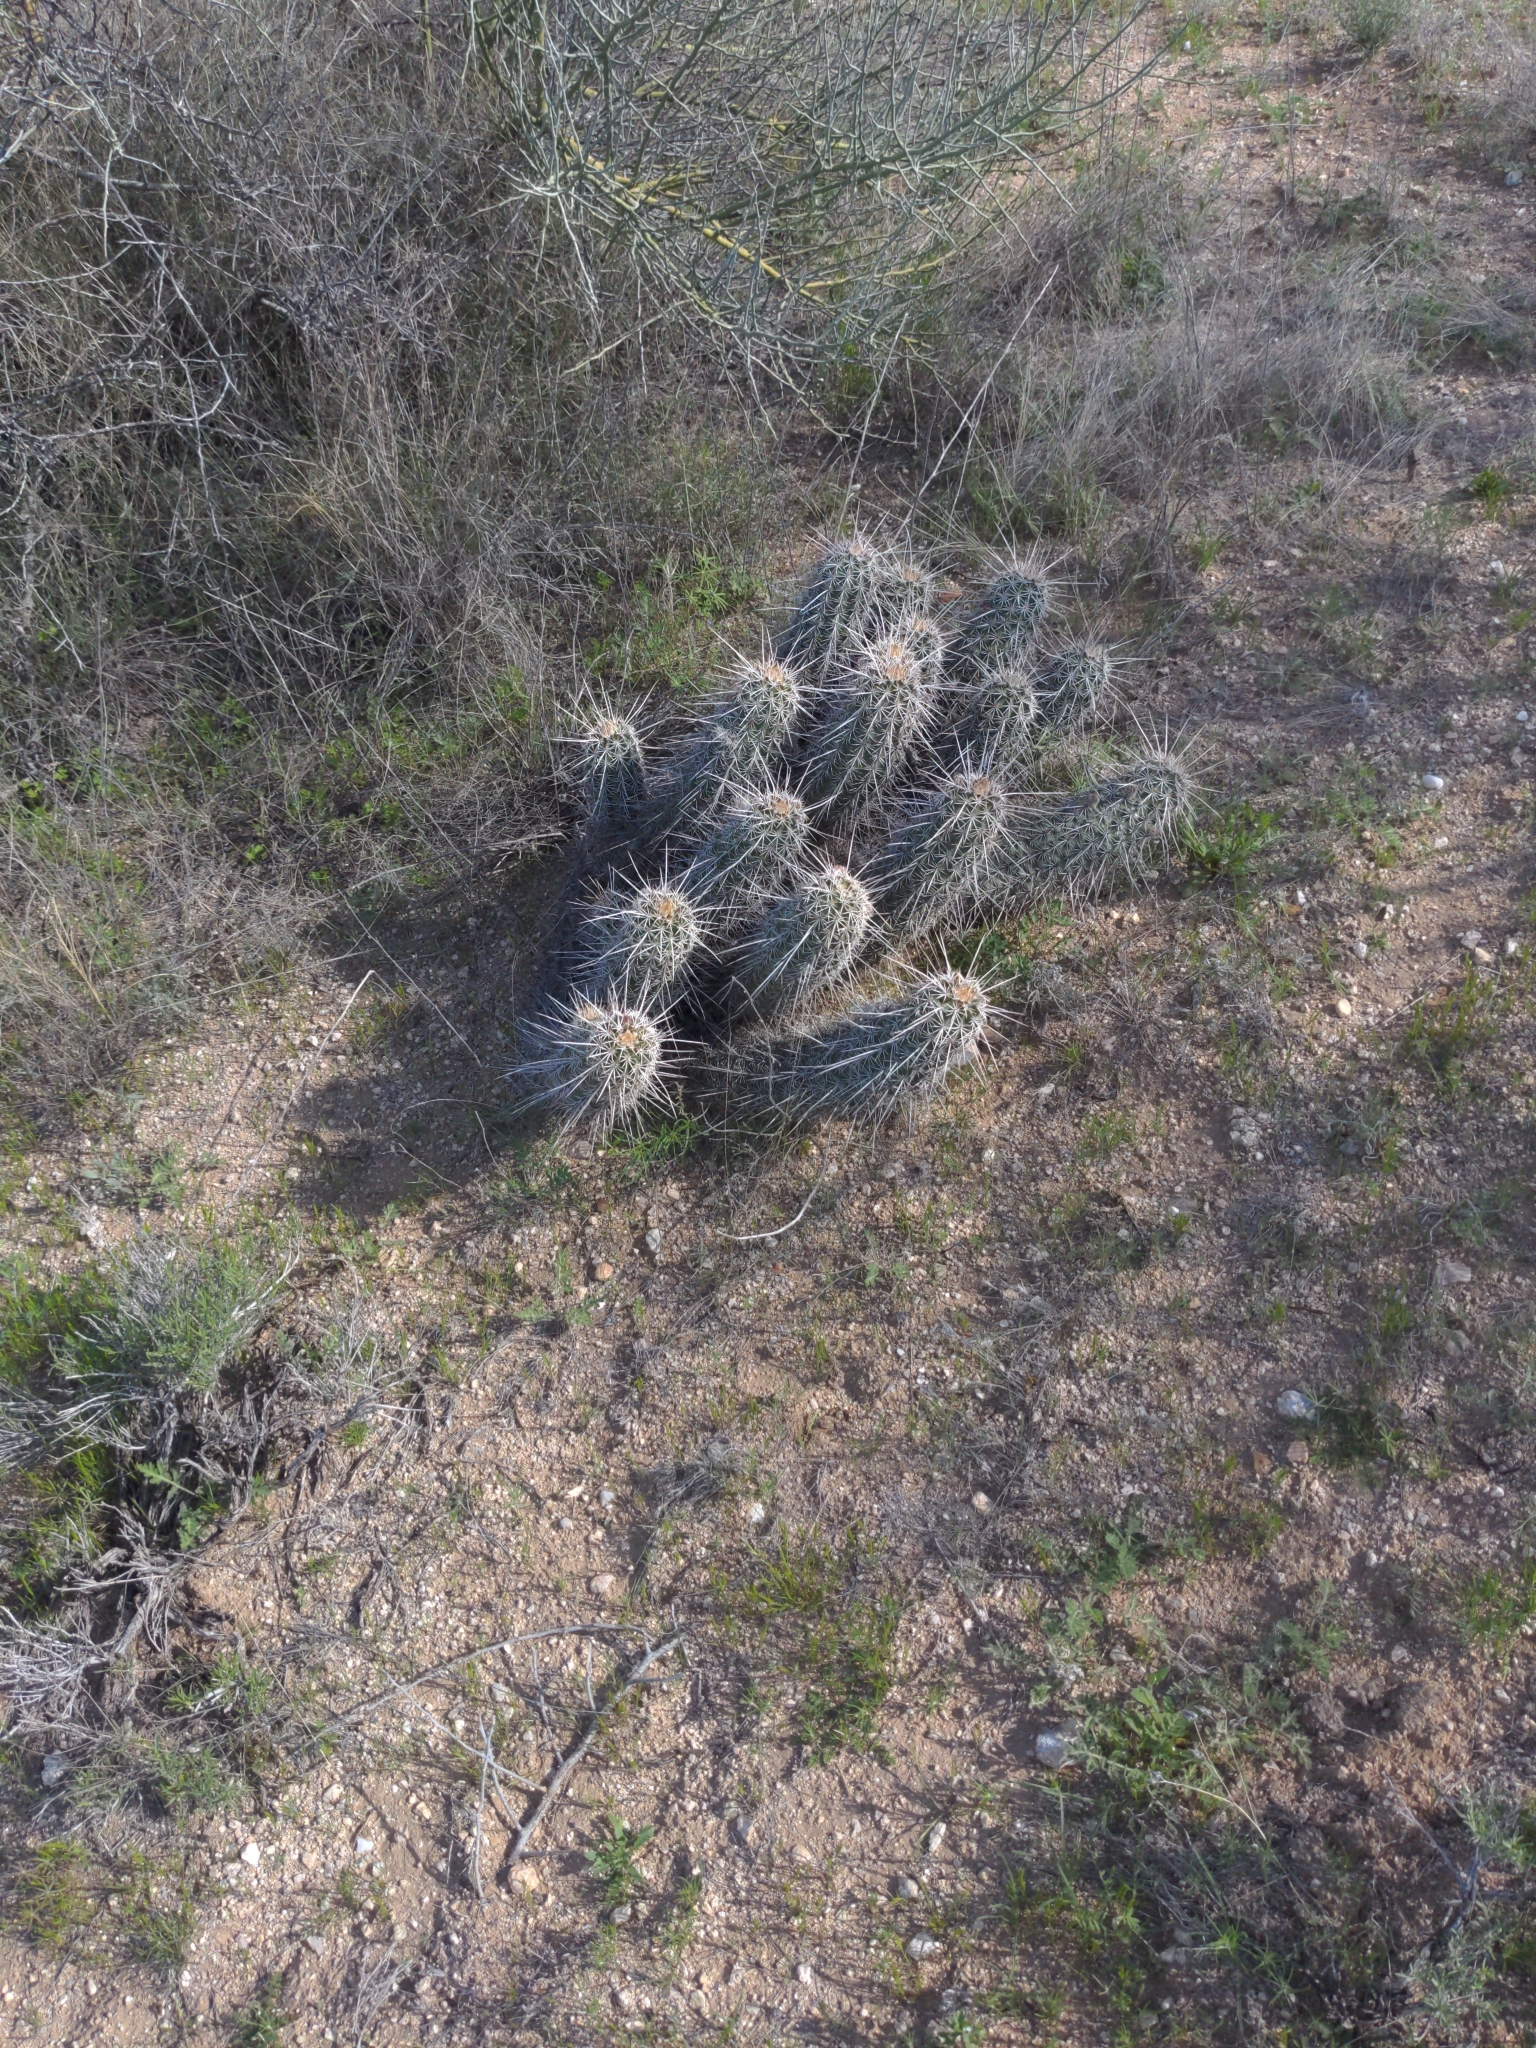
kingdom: Plantae
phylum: Tracheophyta
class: Magnoliopsida
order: Caryophyllales
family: Cactaceae
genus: Echinocereus
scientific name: Echinocereus fasciculatus
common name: Bundle hedgehog
